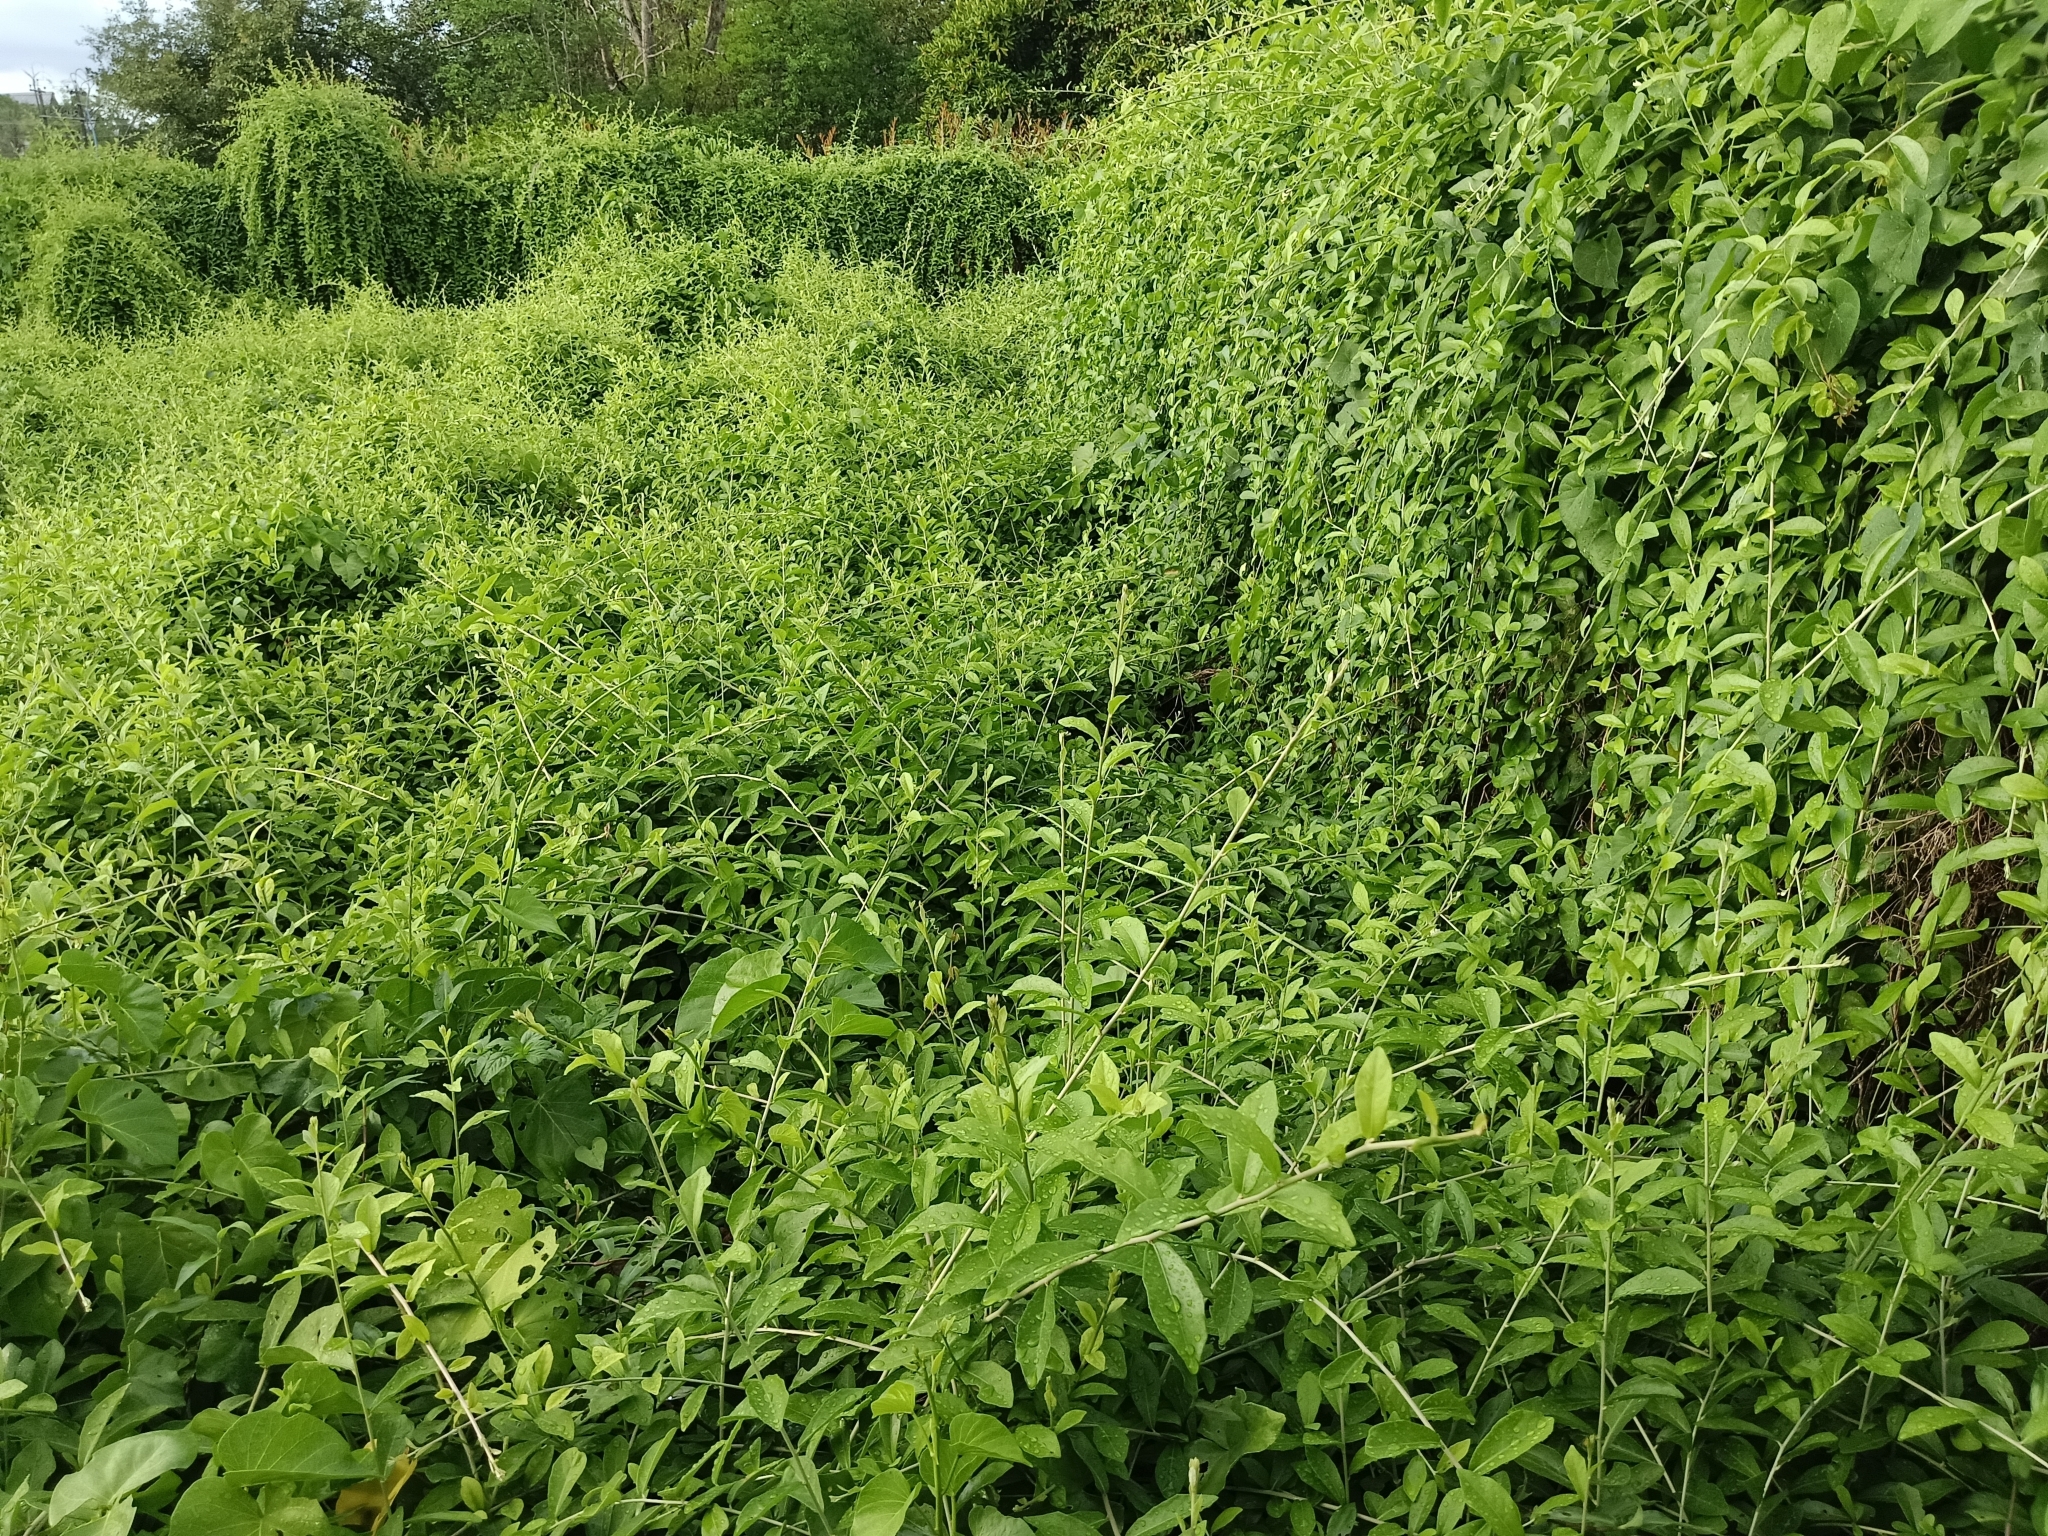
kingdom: Plantae
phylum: Tracheophyta
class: Magnoliopsida
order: Asterales
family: Asteraceae
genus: Tarlmounia
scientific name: Tarlmounia elliptica
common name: Kheua sa lot
